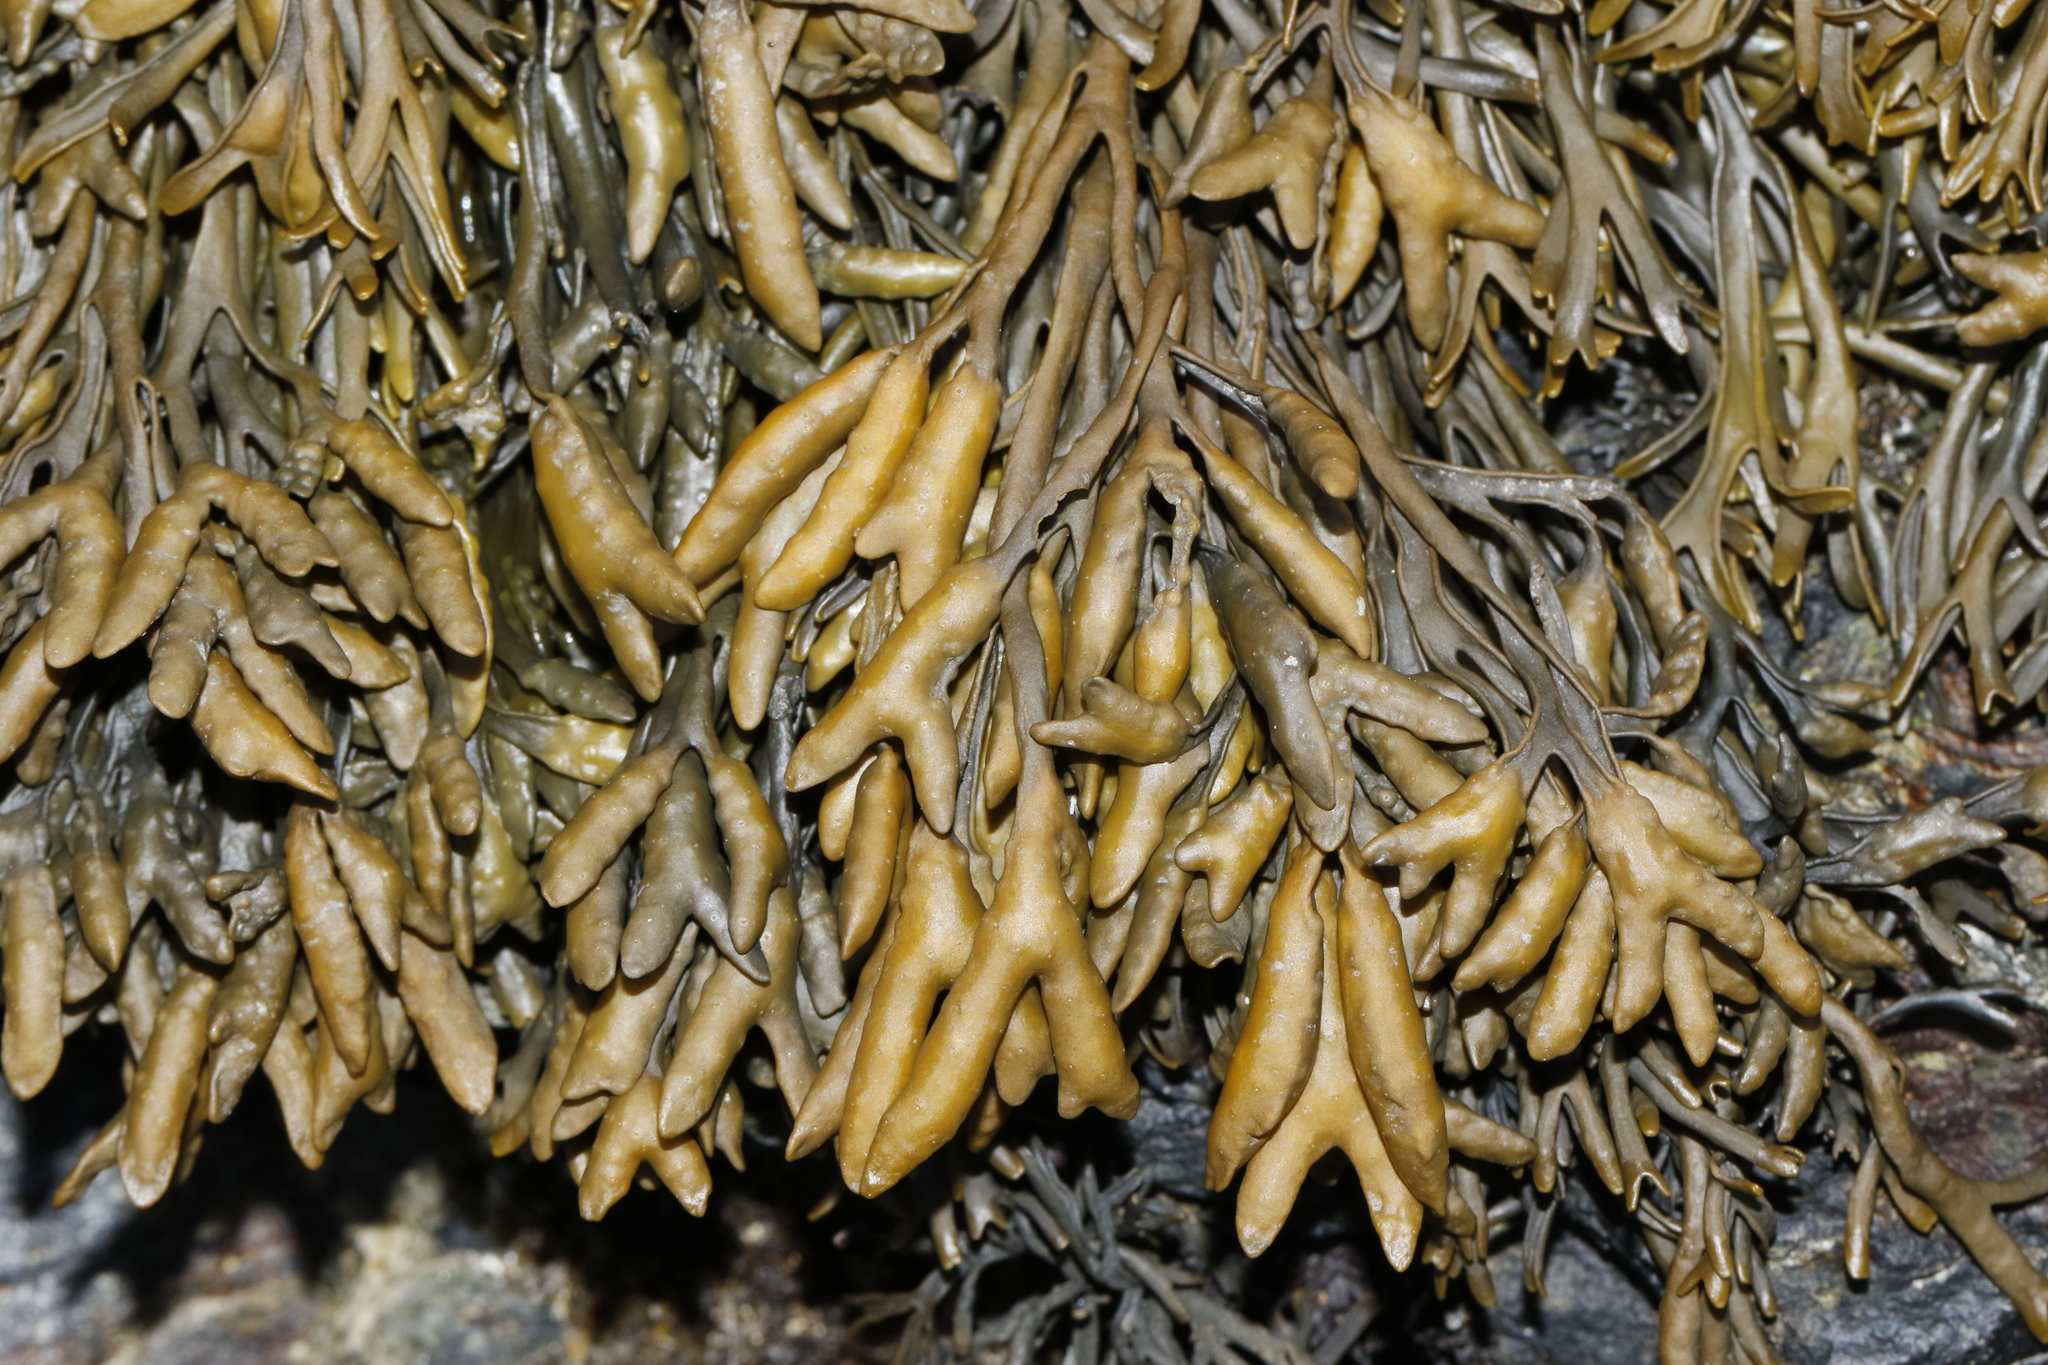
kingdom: Chromista
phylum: Ochrophyta
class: Phaeophyceae
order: Fucales
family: Fucaceae
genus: Pelvetia
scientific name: Pelvetia canaliculata
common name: Channelled wrack
